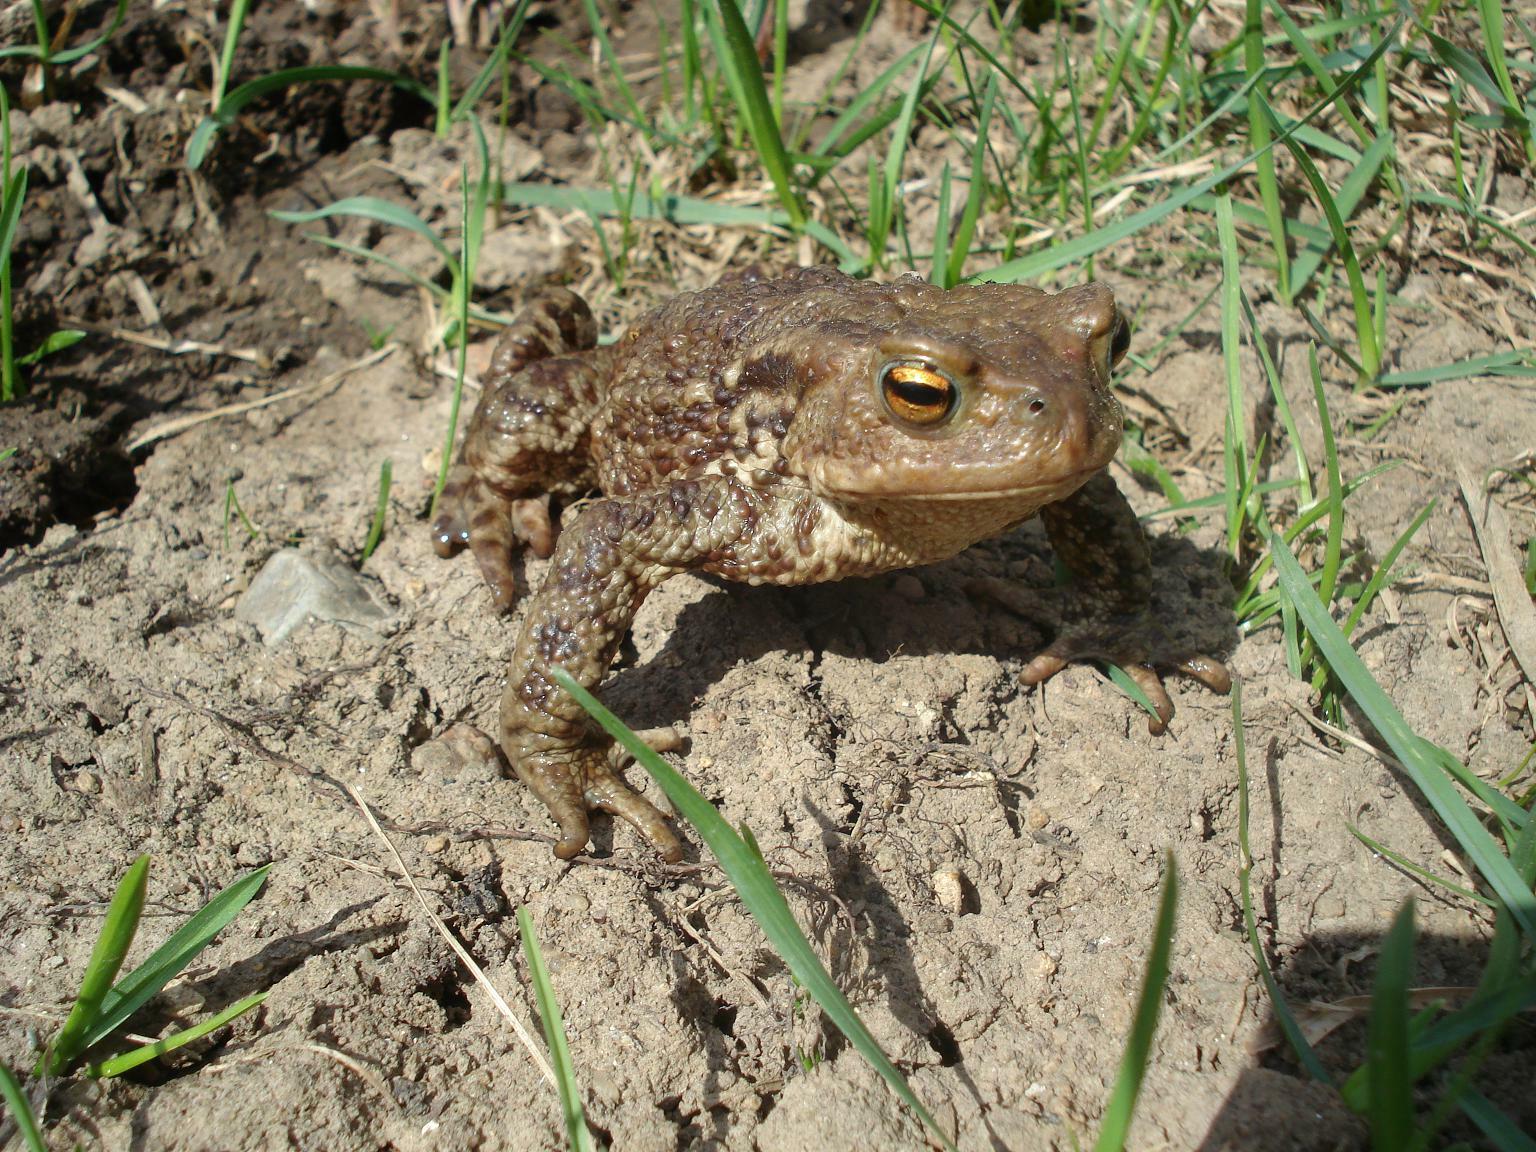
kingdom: Animalia
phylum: Chordata
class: Amphibia
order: Anura
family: Bufonidae
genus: Bufo
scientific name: Bufo bufo
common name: Common toad
